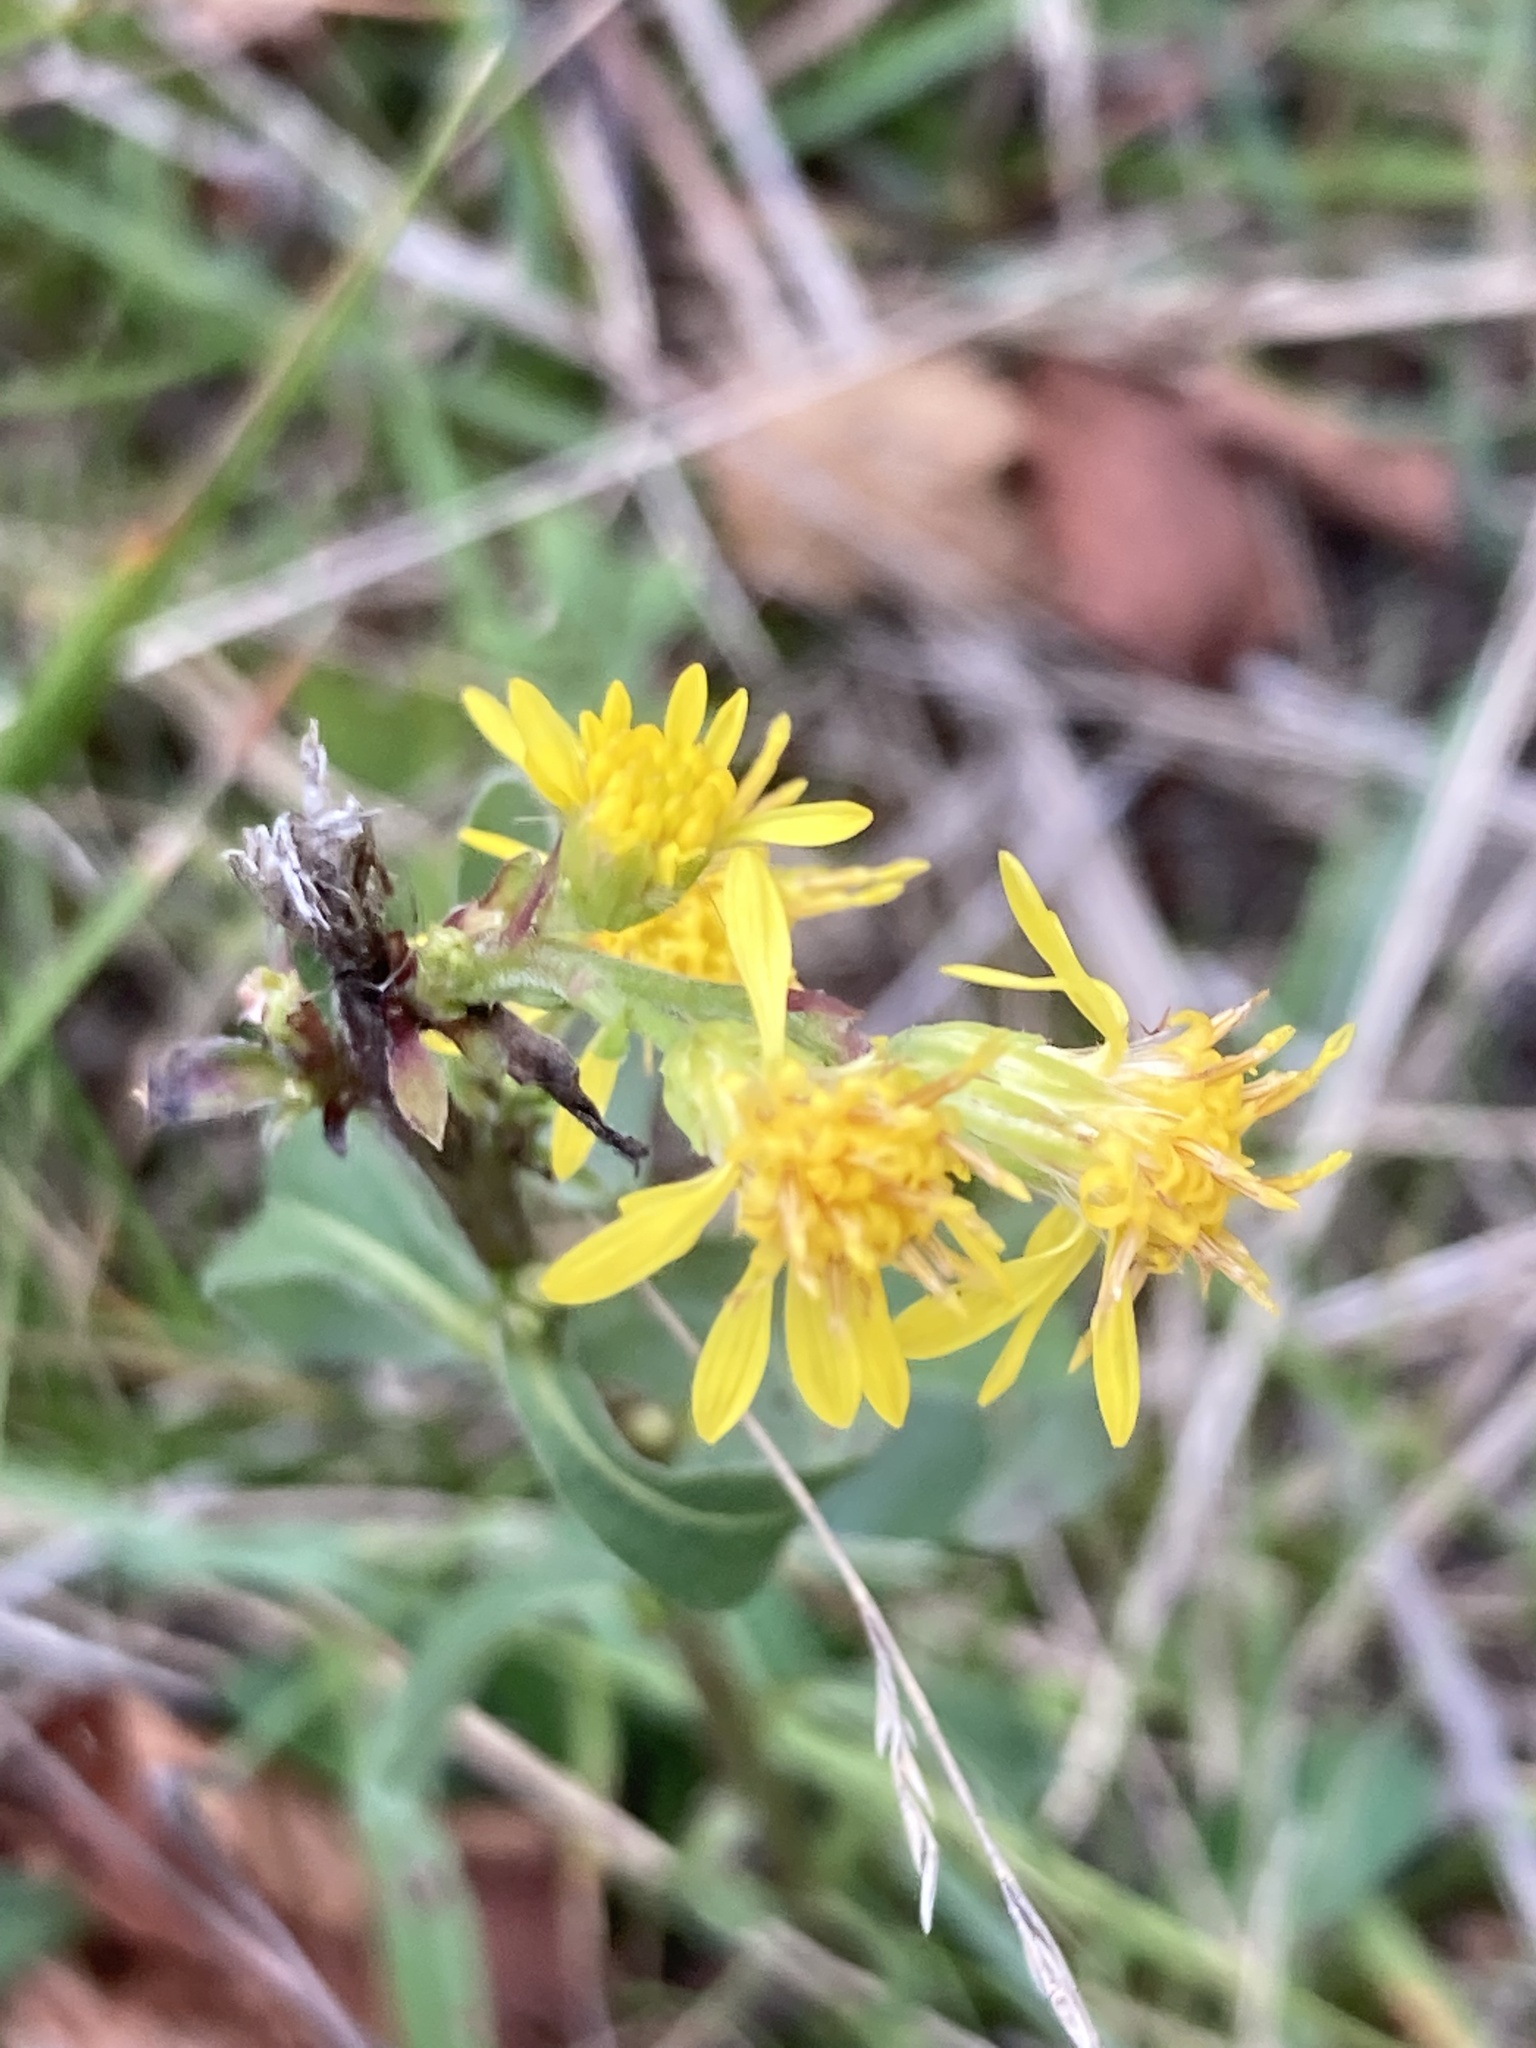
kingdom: Plantae
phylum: Tracheophyta
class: Magnoliopsida
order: Asterales
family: Asteraceae
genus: Solidago
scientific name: Solidago virgaurea
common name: Goldenrod
